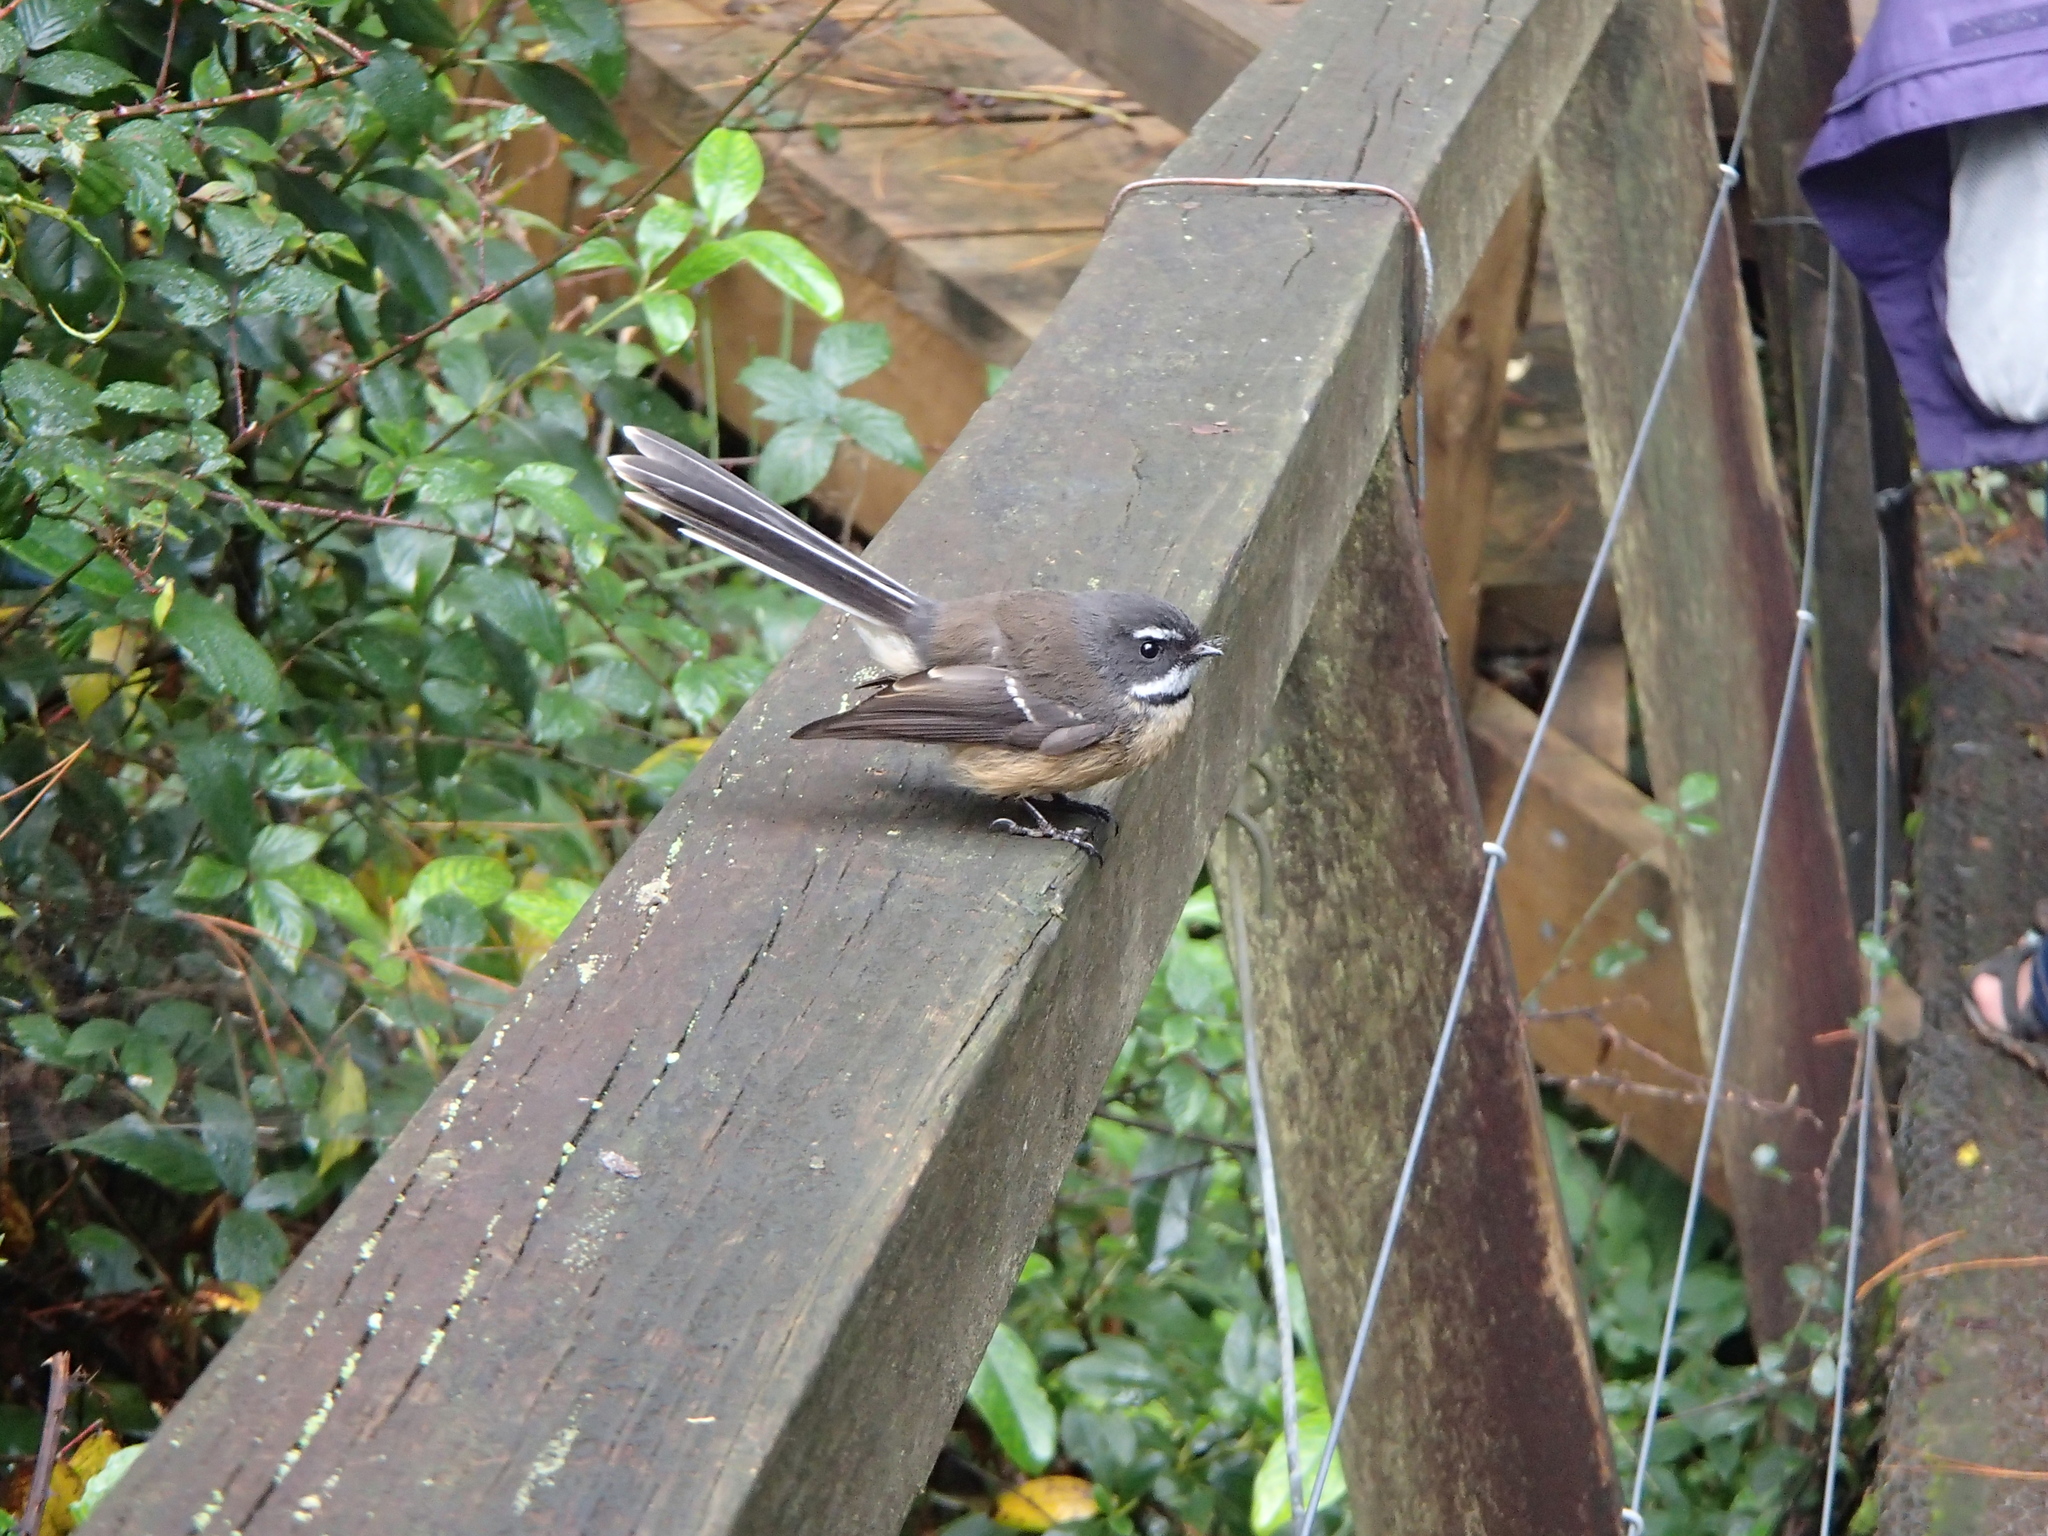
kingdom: Animalia
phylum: Chordata
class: Aves
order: Passeriformes
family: Rhipiduridae
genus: Rhipidura
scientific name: Rhipidura fuliginosa
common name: New zealand fantail
